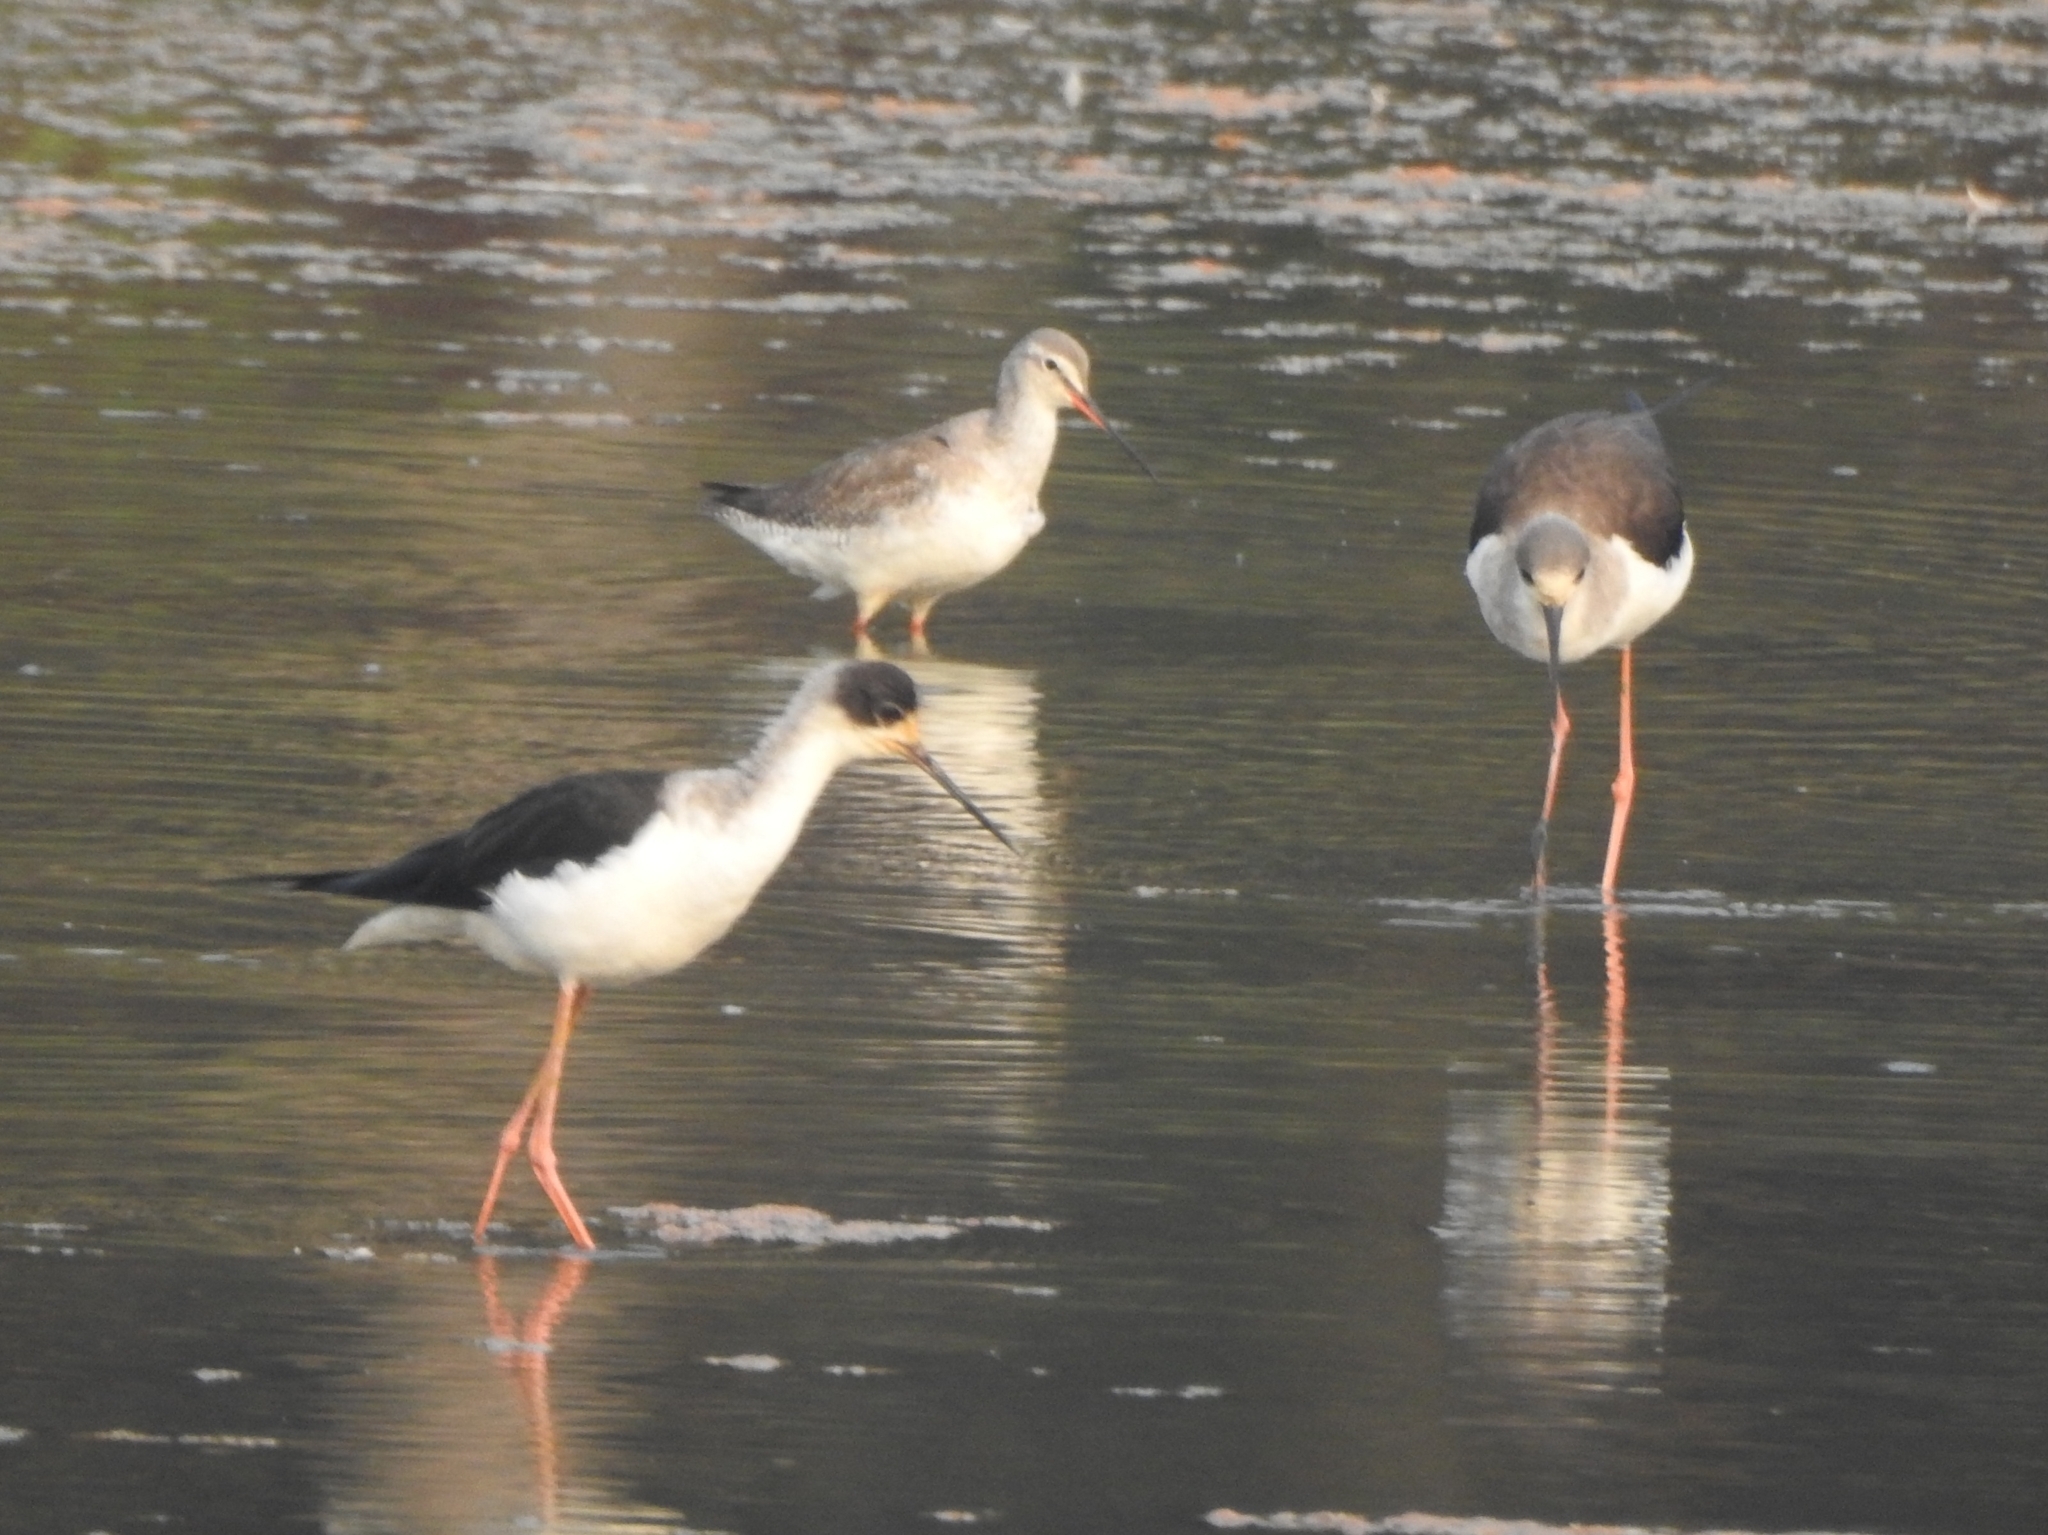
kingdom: Animalia
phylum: Chordata
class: Aves
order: Charadriiformes
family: Recurvirostridae
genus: Himantopus
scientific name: Himantopus himantopus
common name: Black-winged stilt
